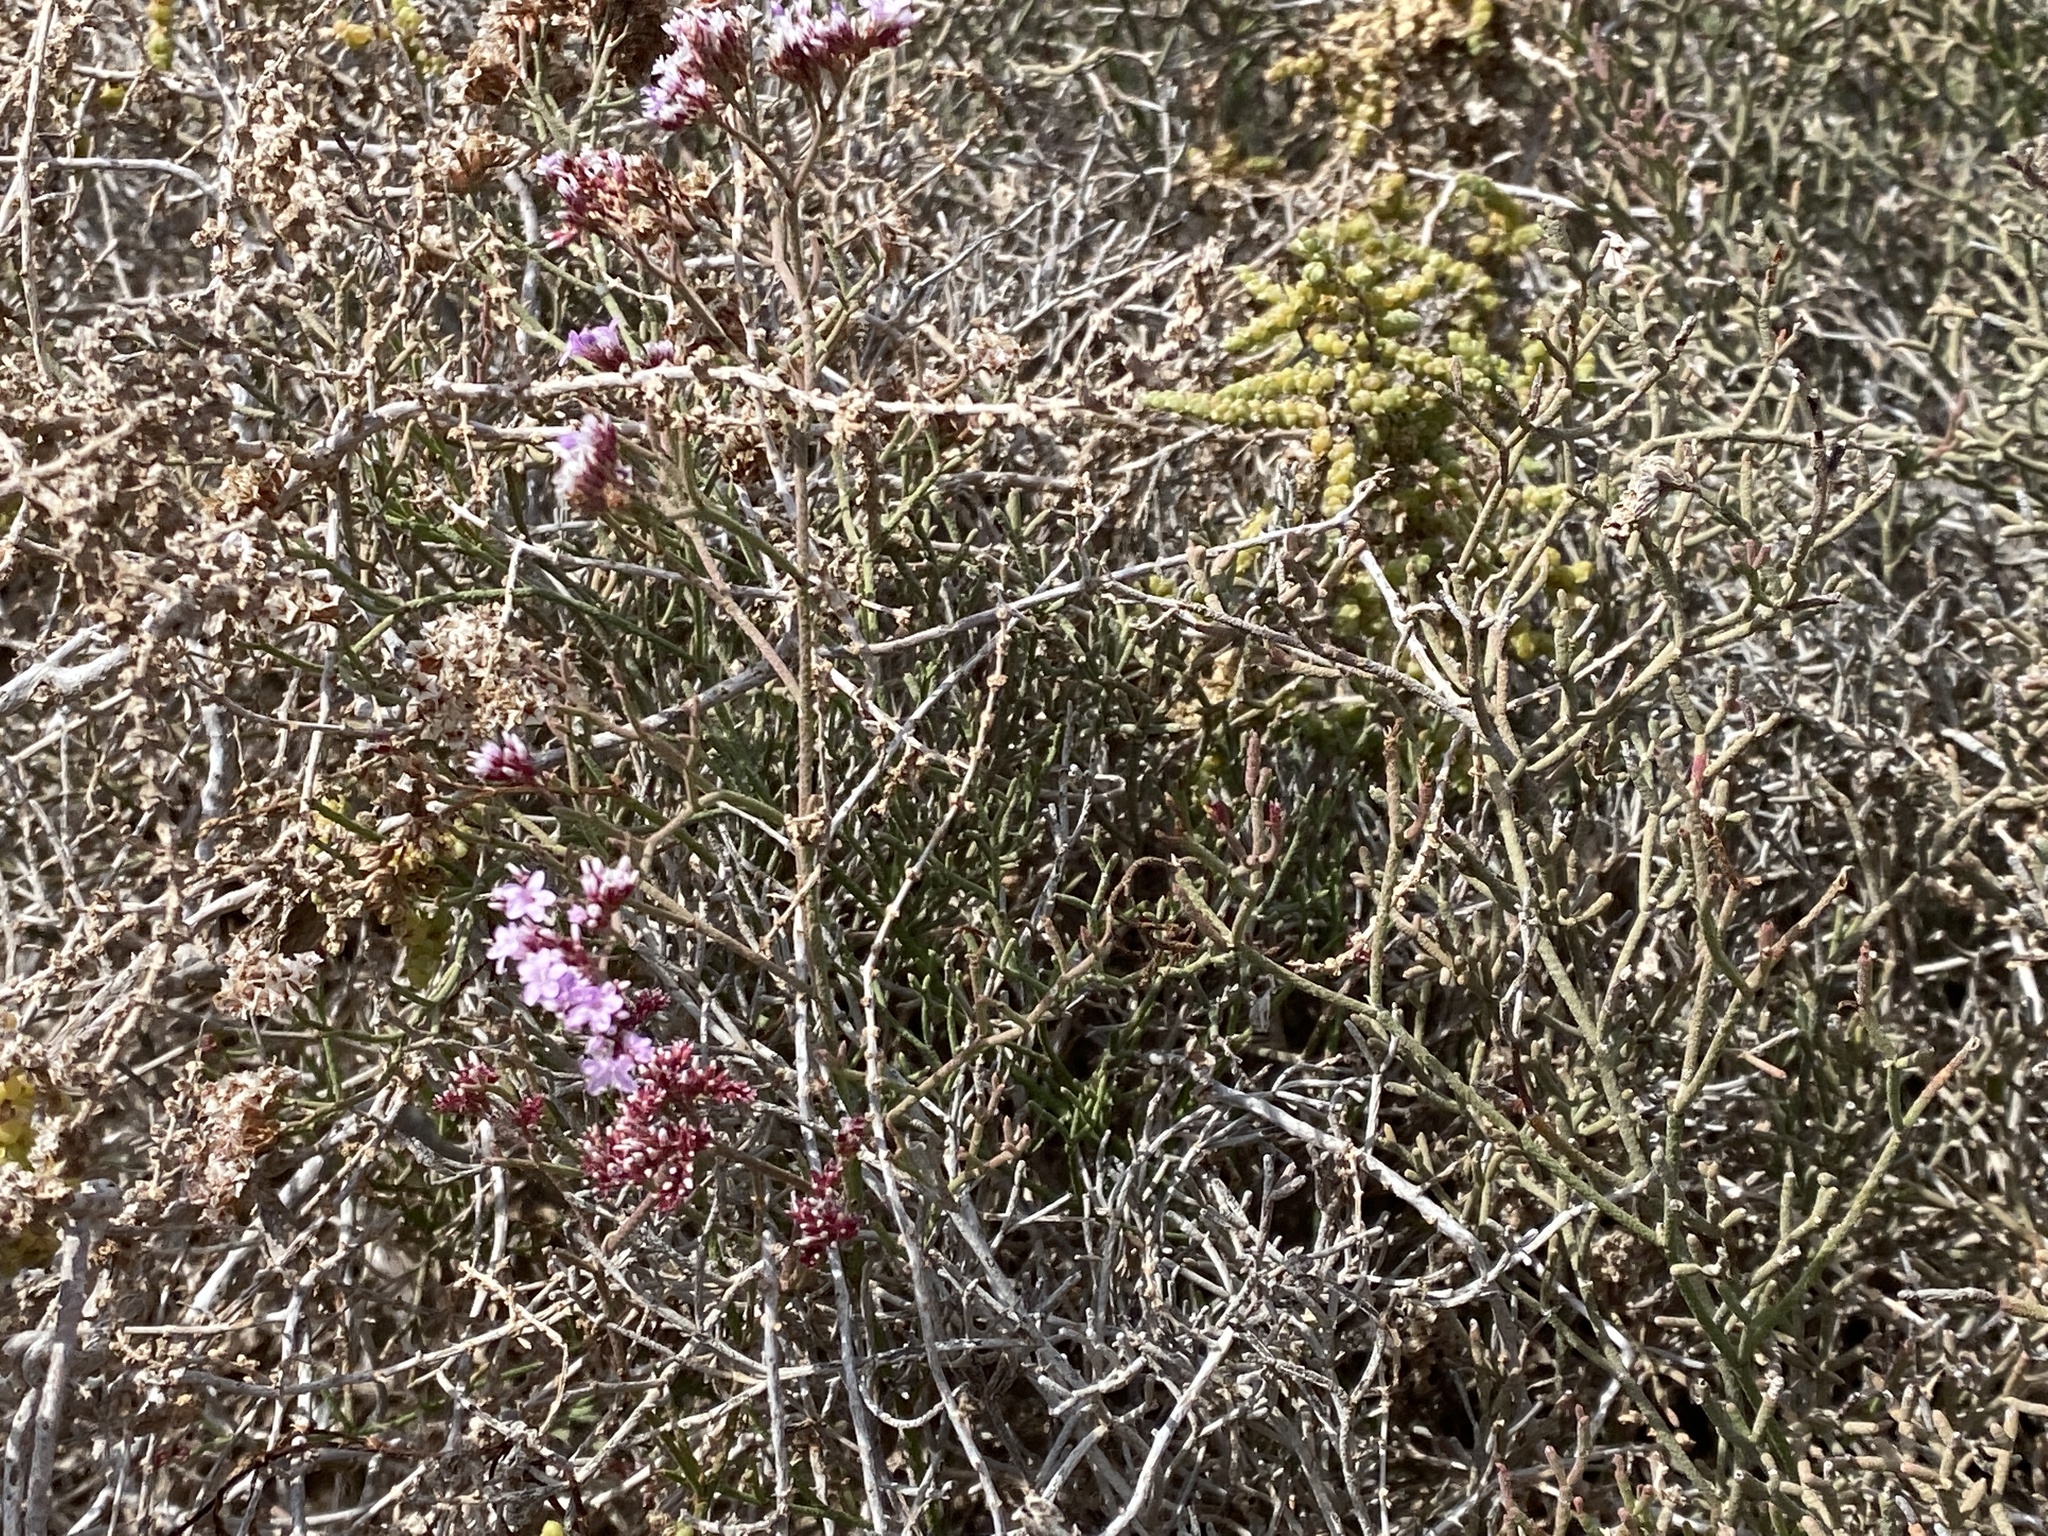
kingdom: Plantae
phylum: Tracheophyta
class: Magnoliopsida
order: Caryophyllales
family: Plumbaginaceae
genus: Limonium
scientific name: Limonium tuberculatum
